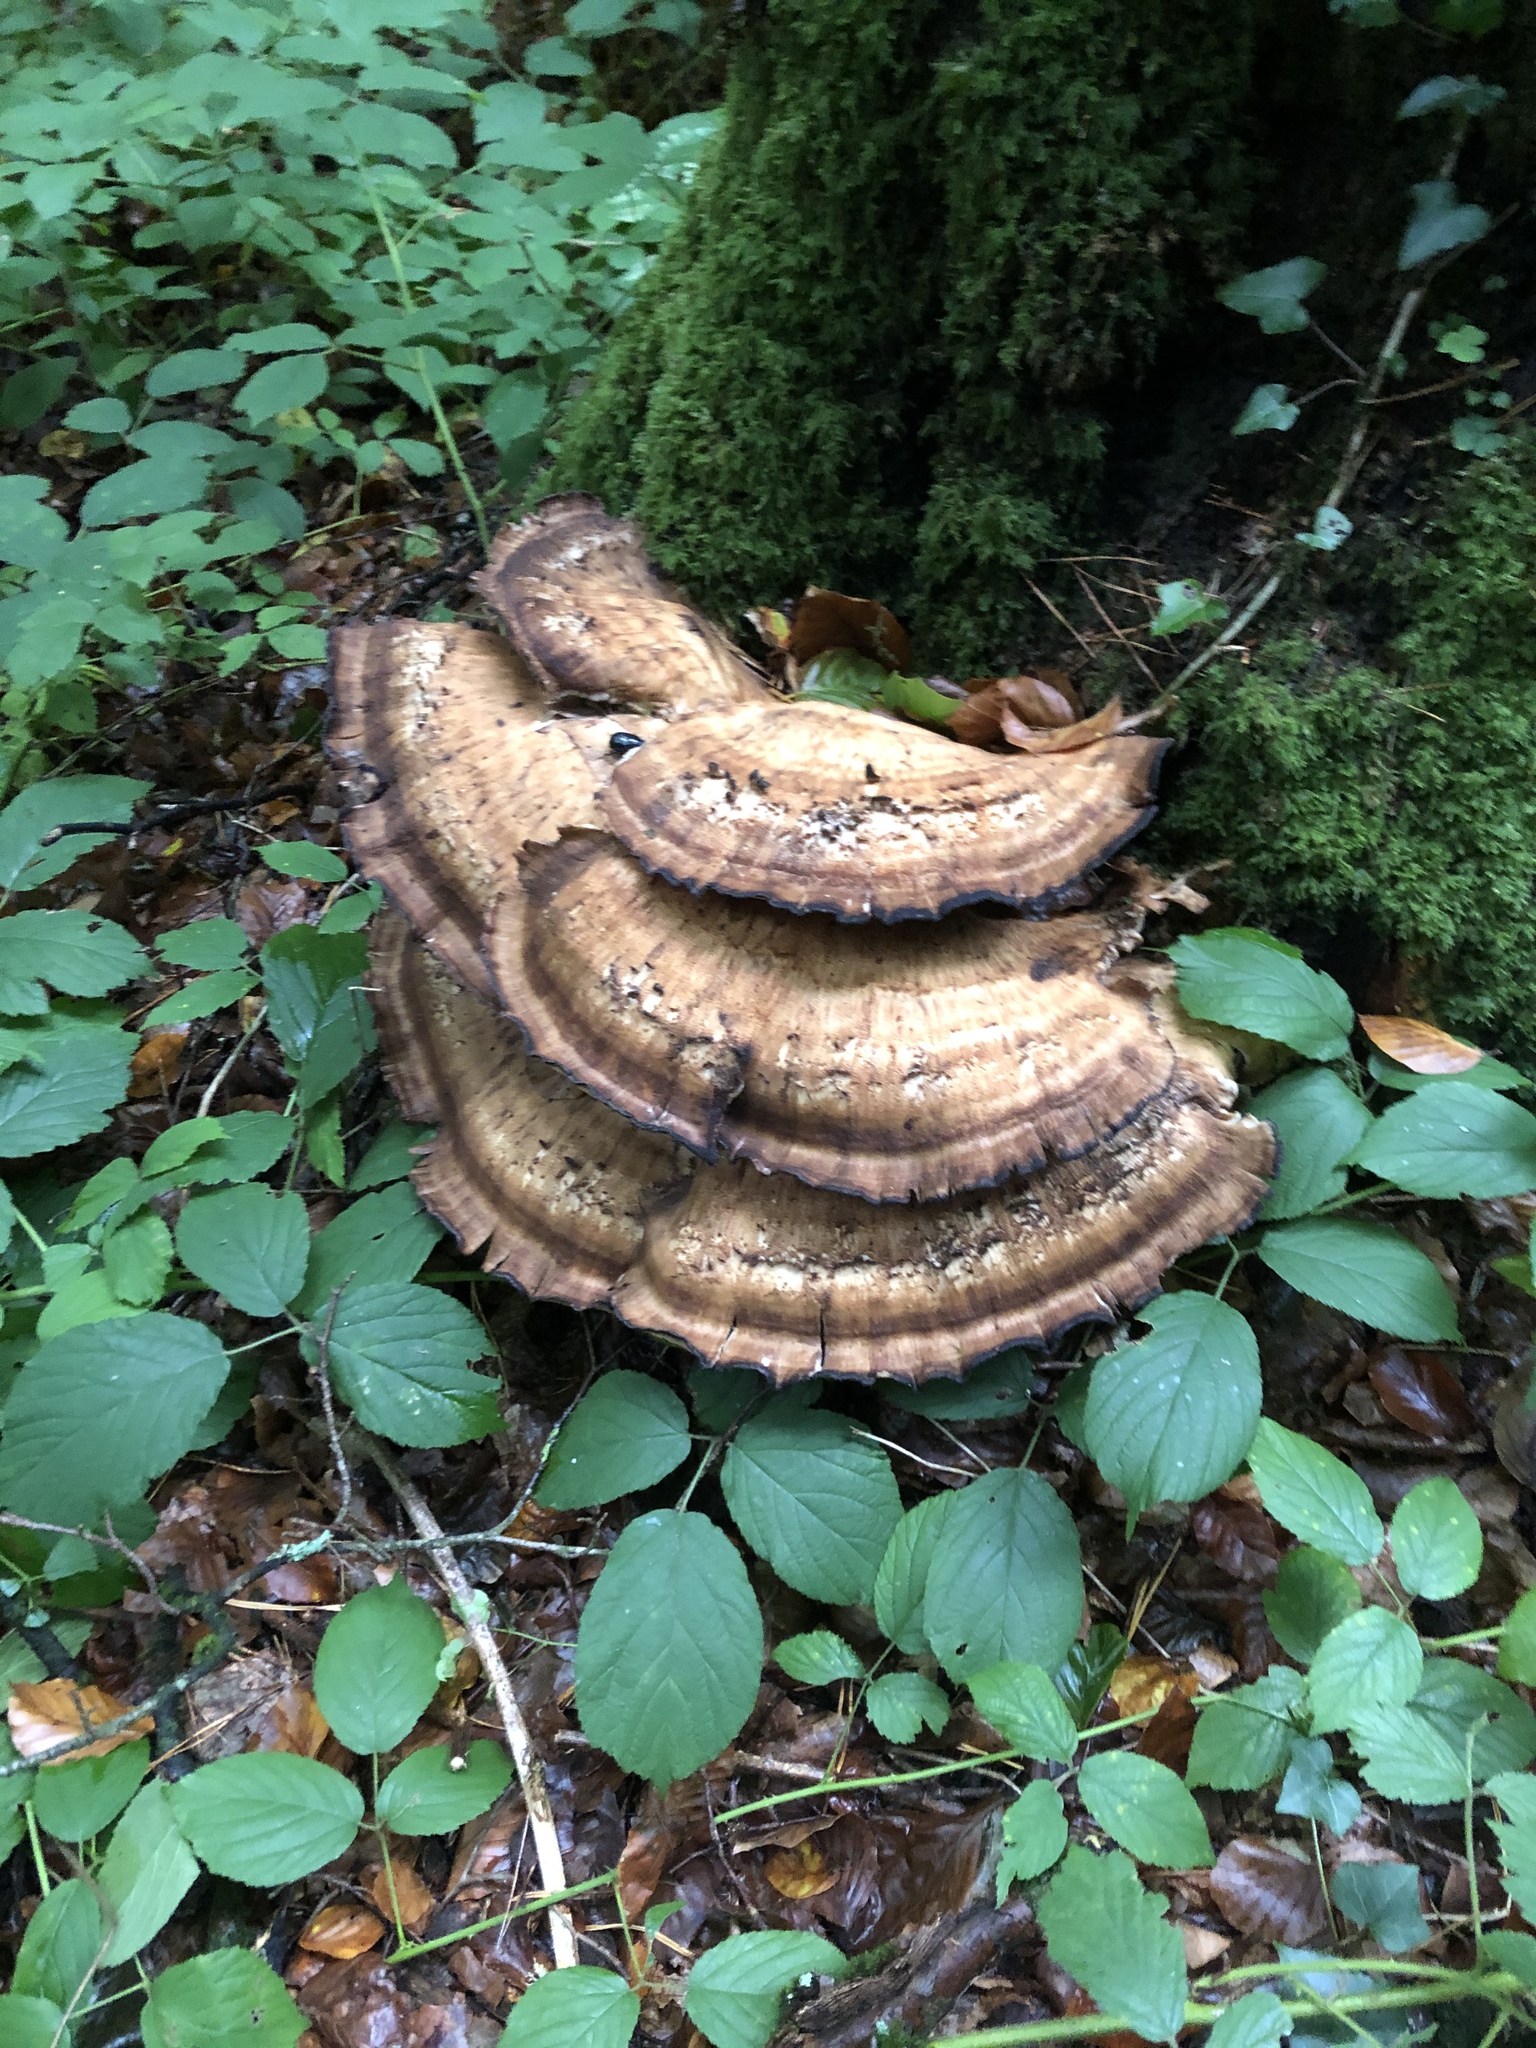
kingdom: Fungi
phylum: Basidiomycota
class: Agaricomycetes
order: Polyporales
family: Meripilaceae
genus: Meripilus
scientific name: Meripilus giganteus
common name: Giant polypore
